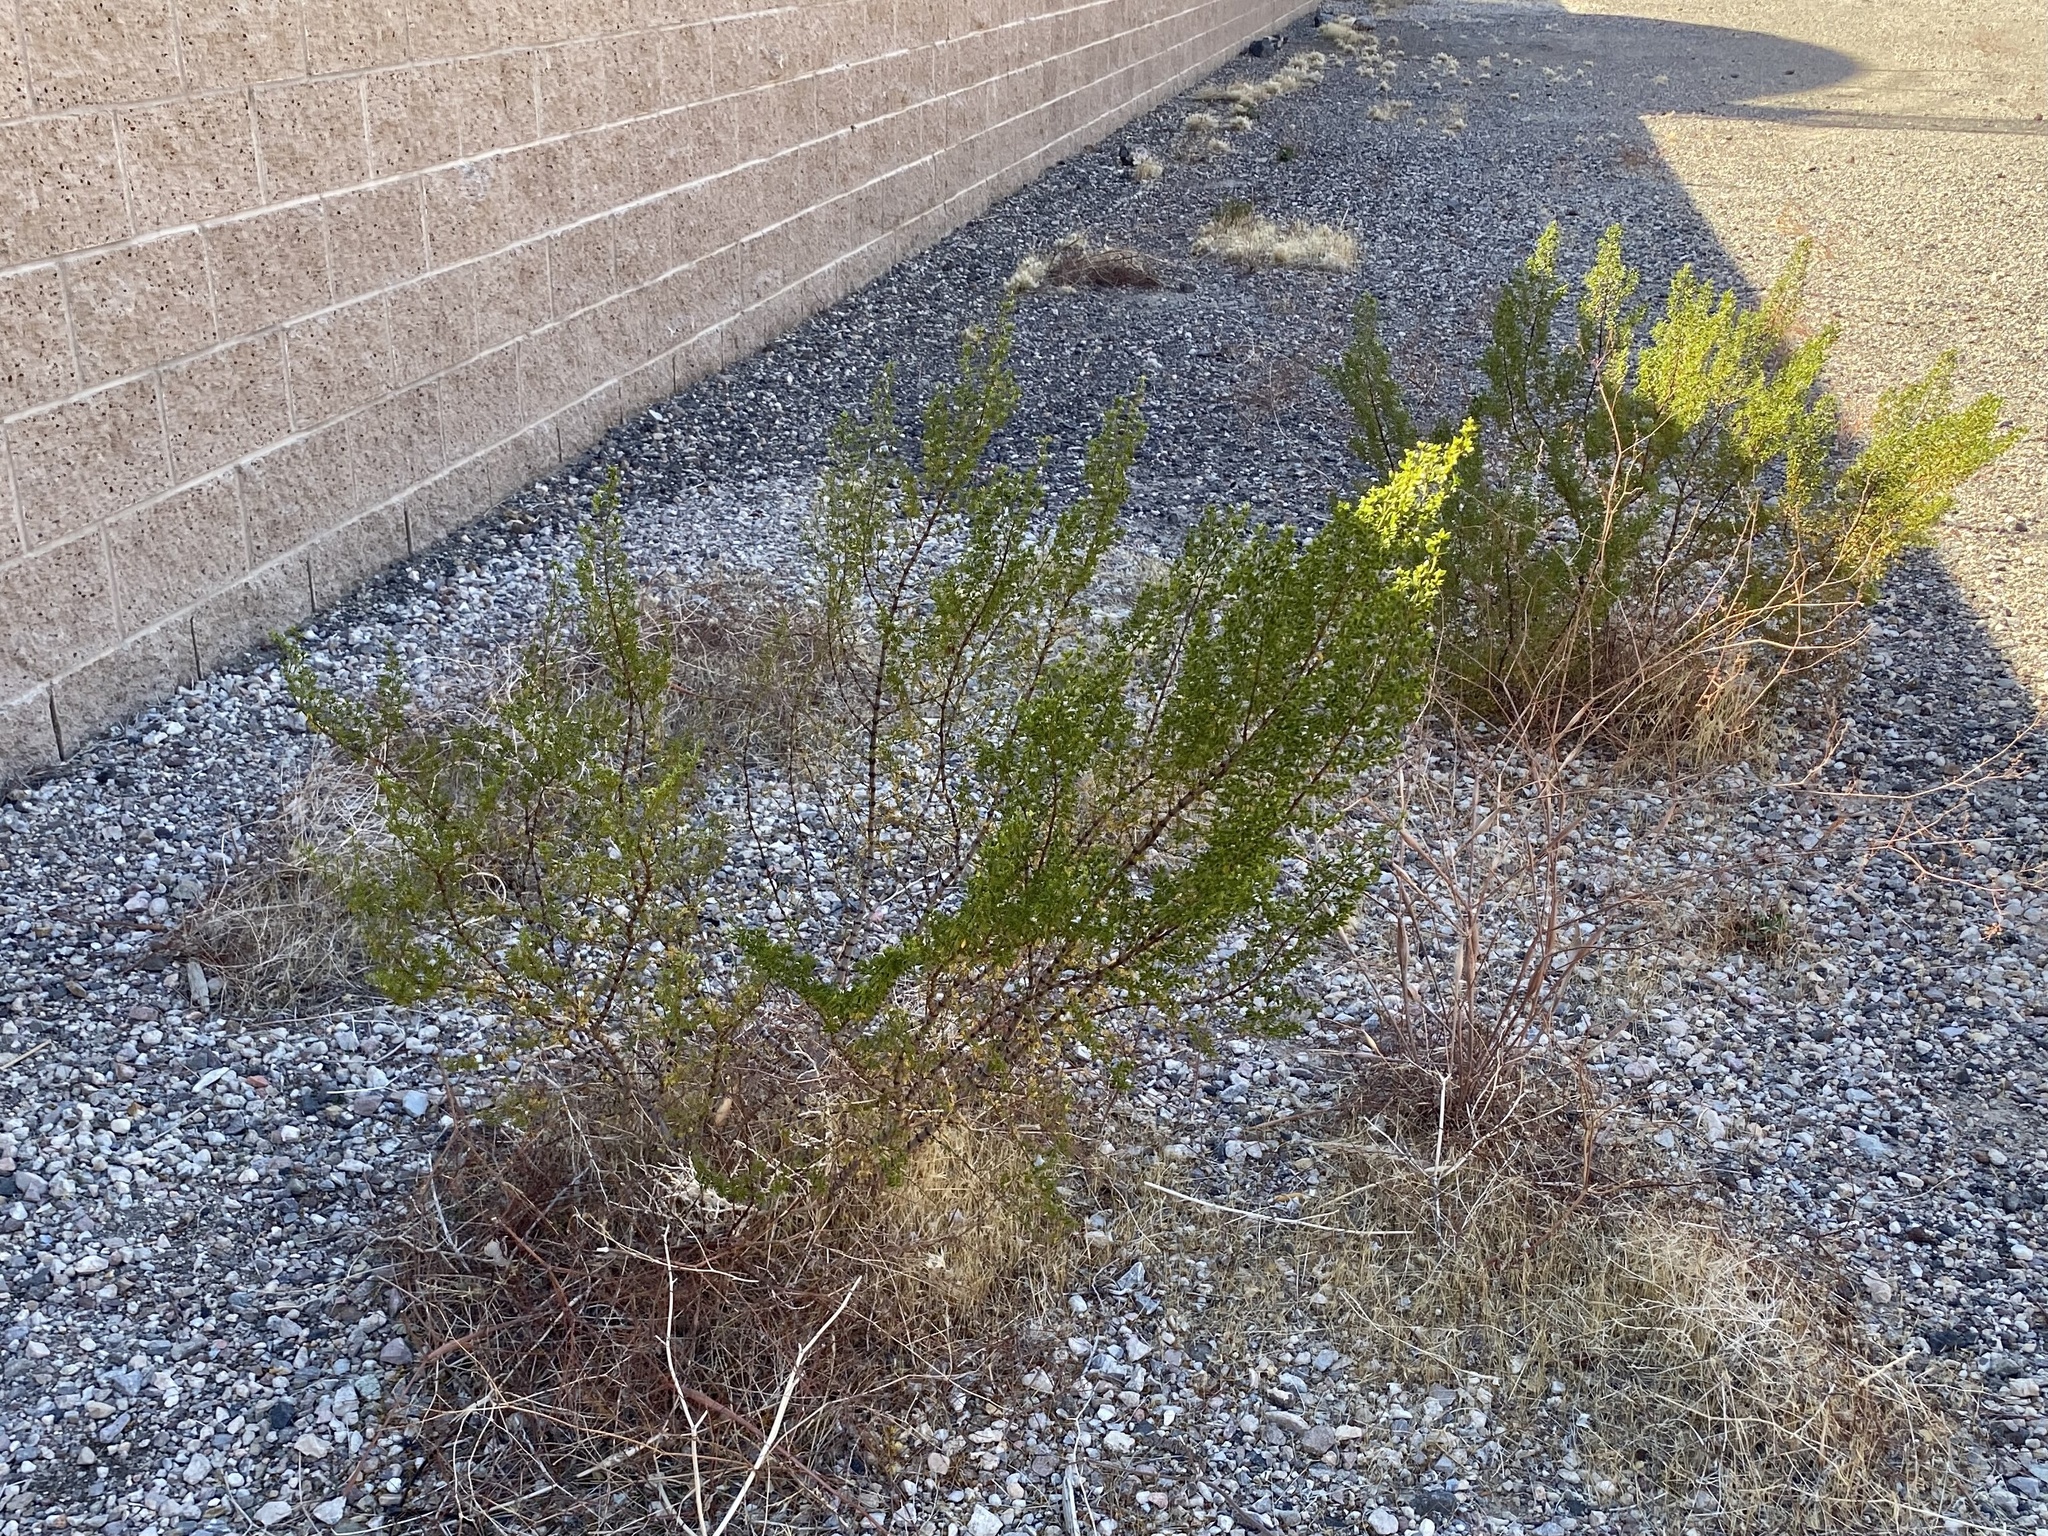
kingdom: Plantae
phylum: Tracheophyta
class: Magnoliopsida
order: Zygophyllales
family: Zygophyllaceae
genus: Larrea
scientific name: Larrea tridentata
